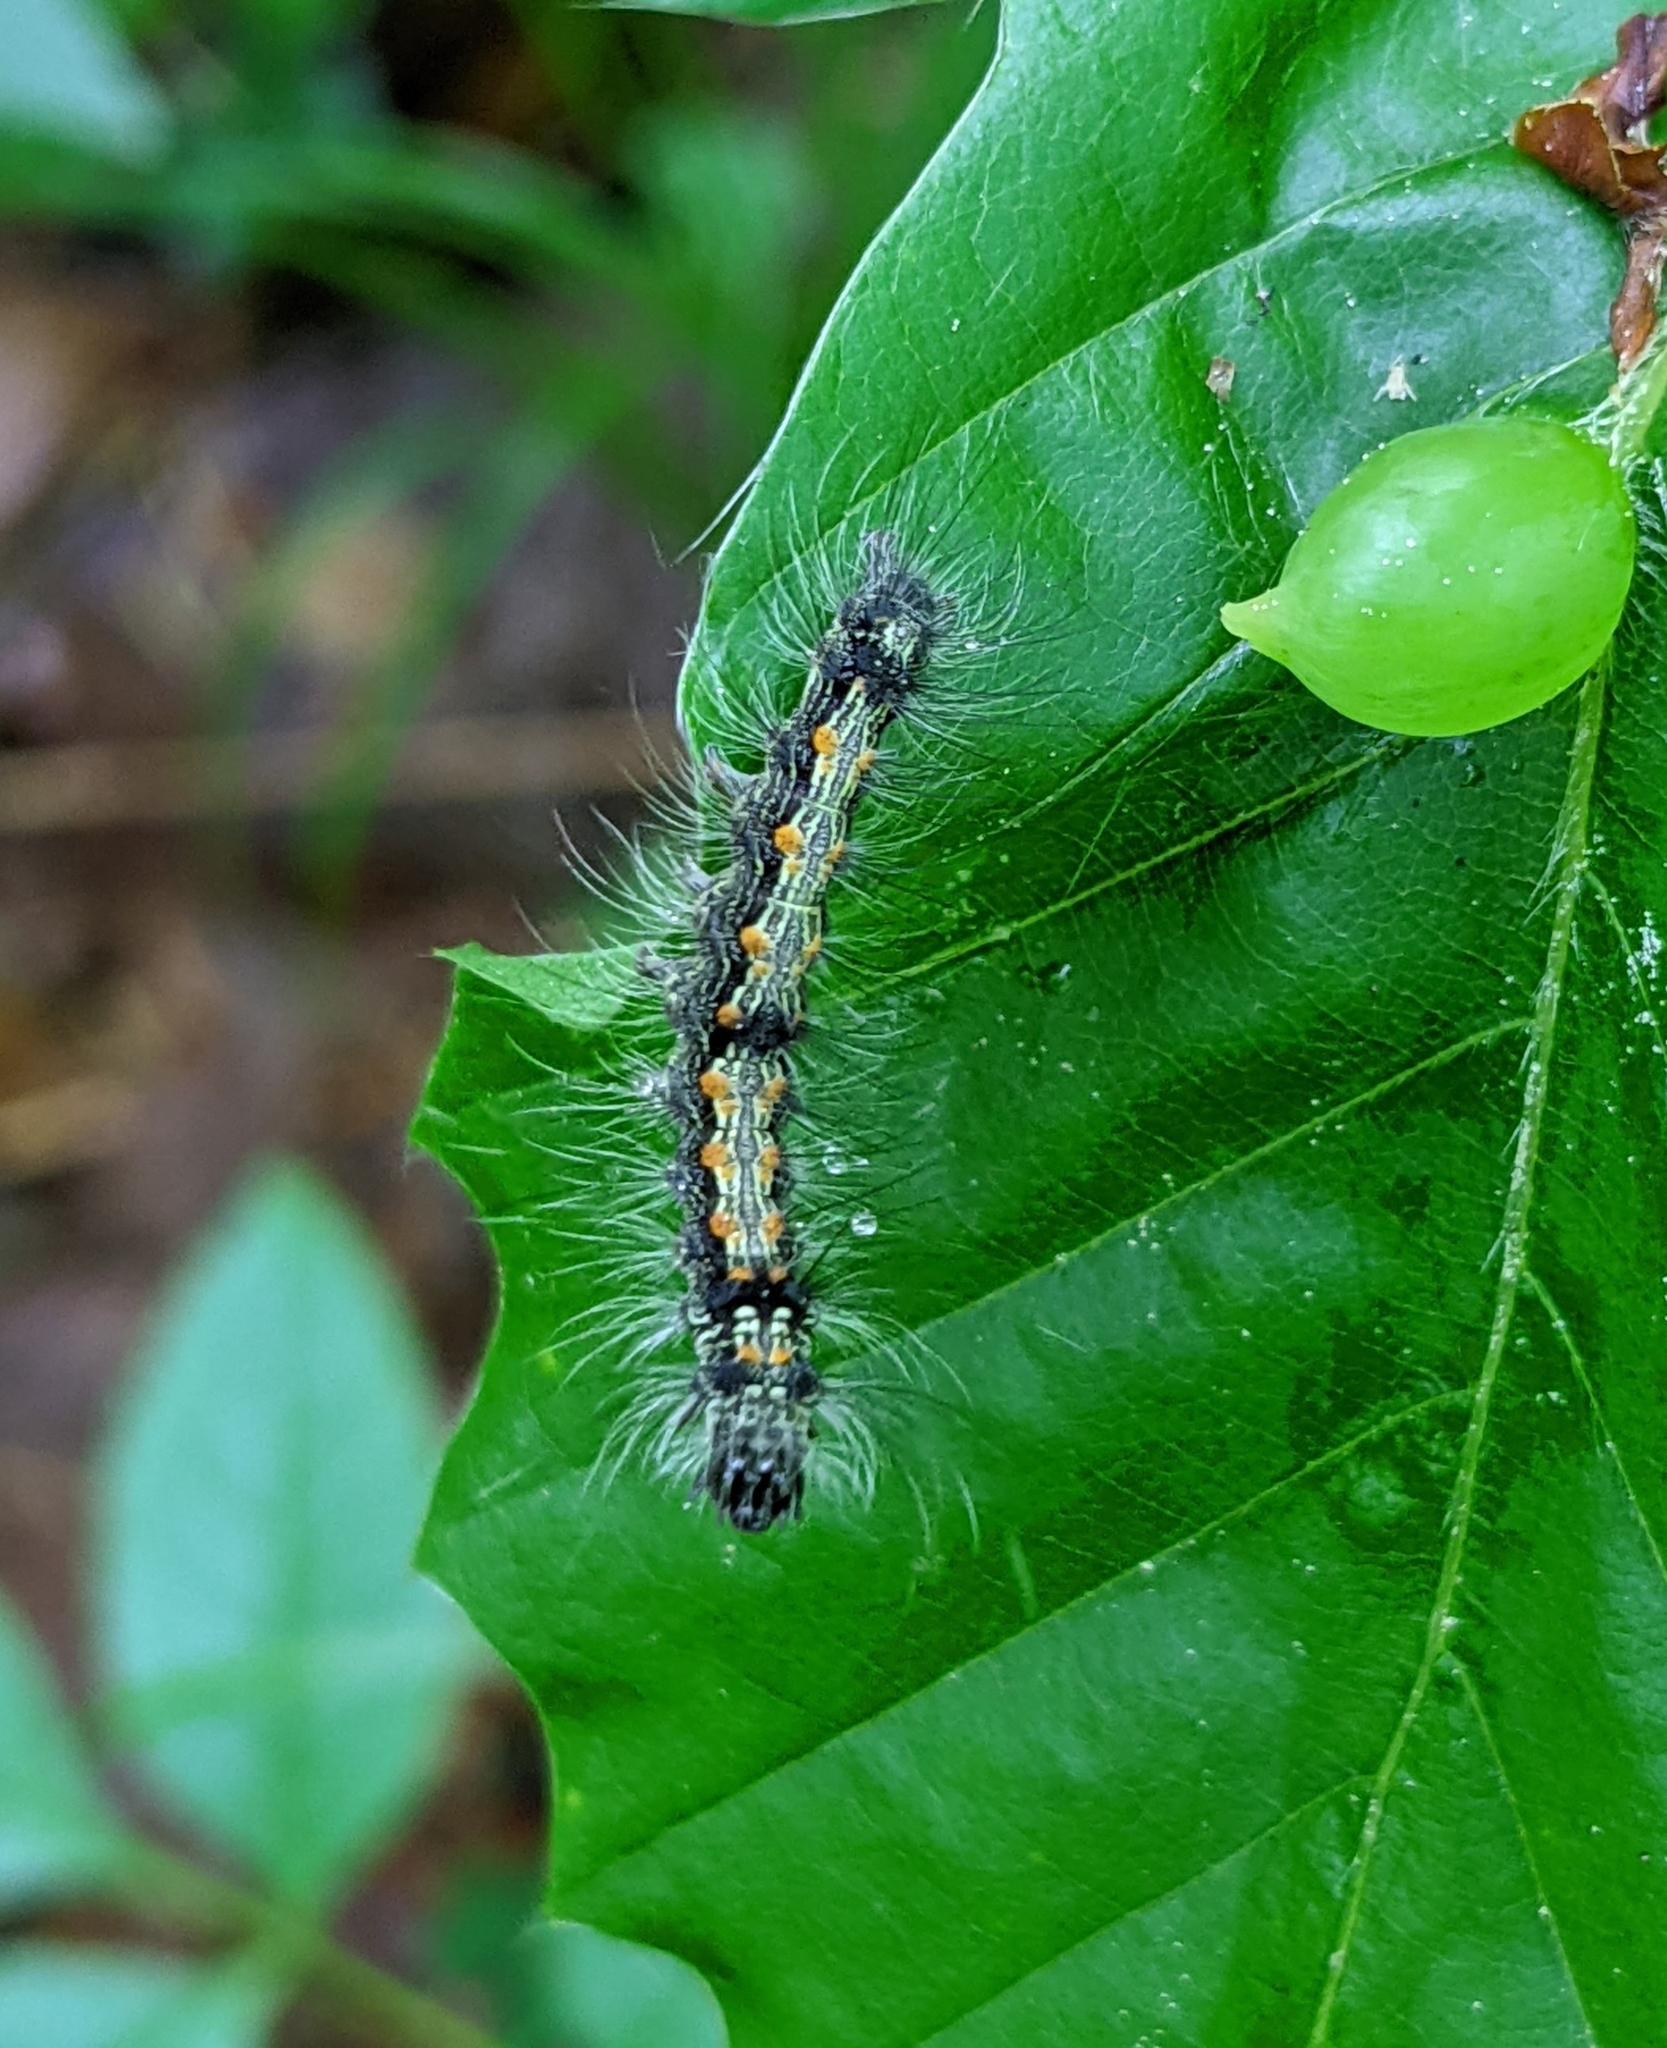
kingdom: Animalia
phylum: Arthropoda
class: Insecta
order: Lepidoptera
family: Erebidae
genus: Lithosia
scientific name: Lithosia quadra
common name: Four-spotted footman
